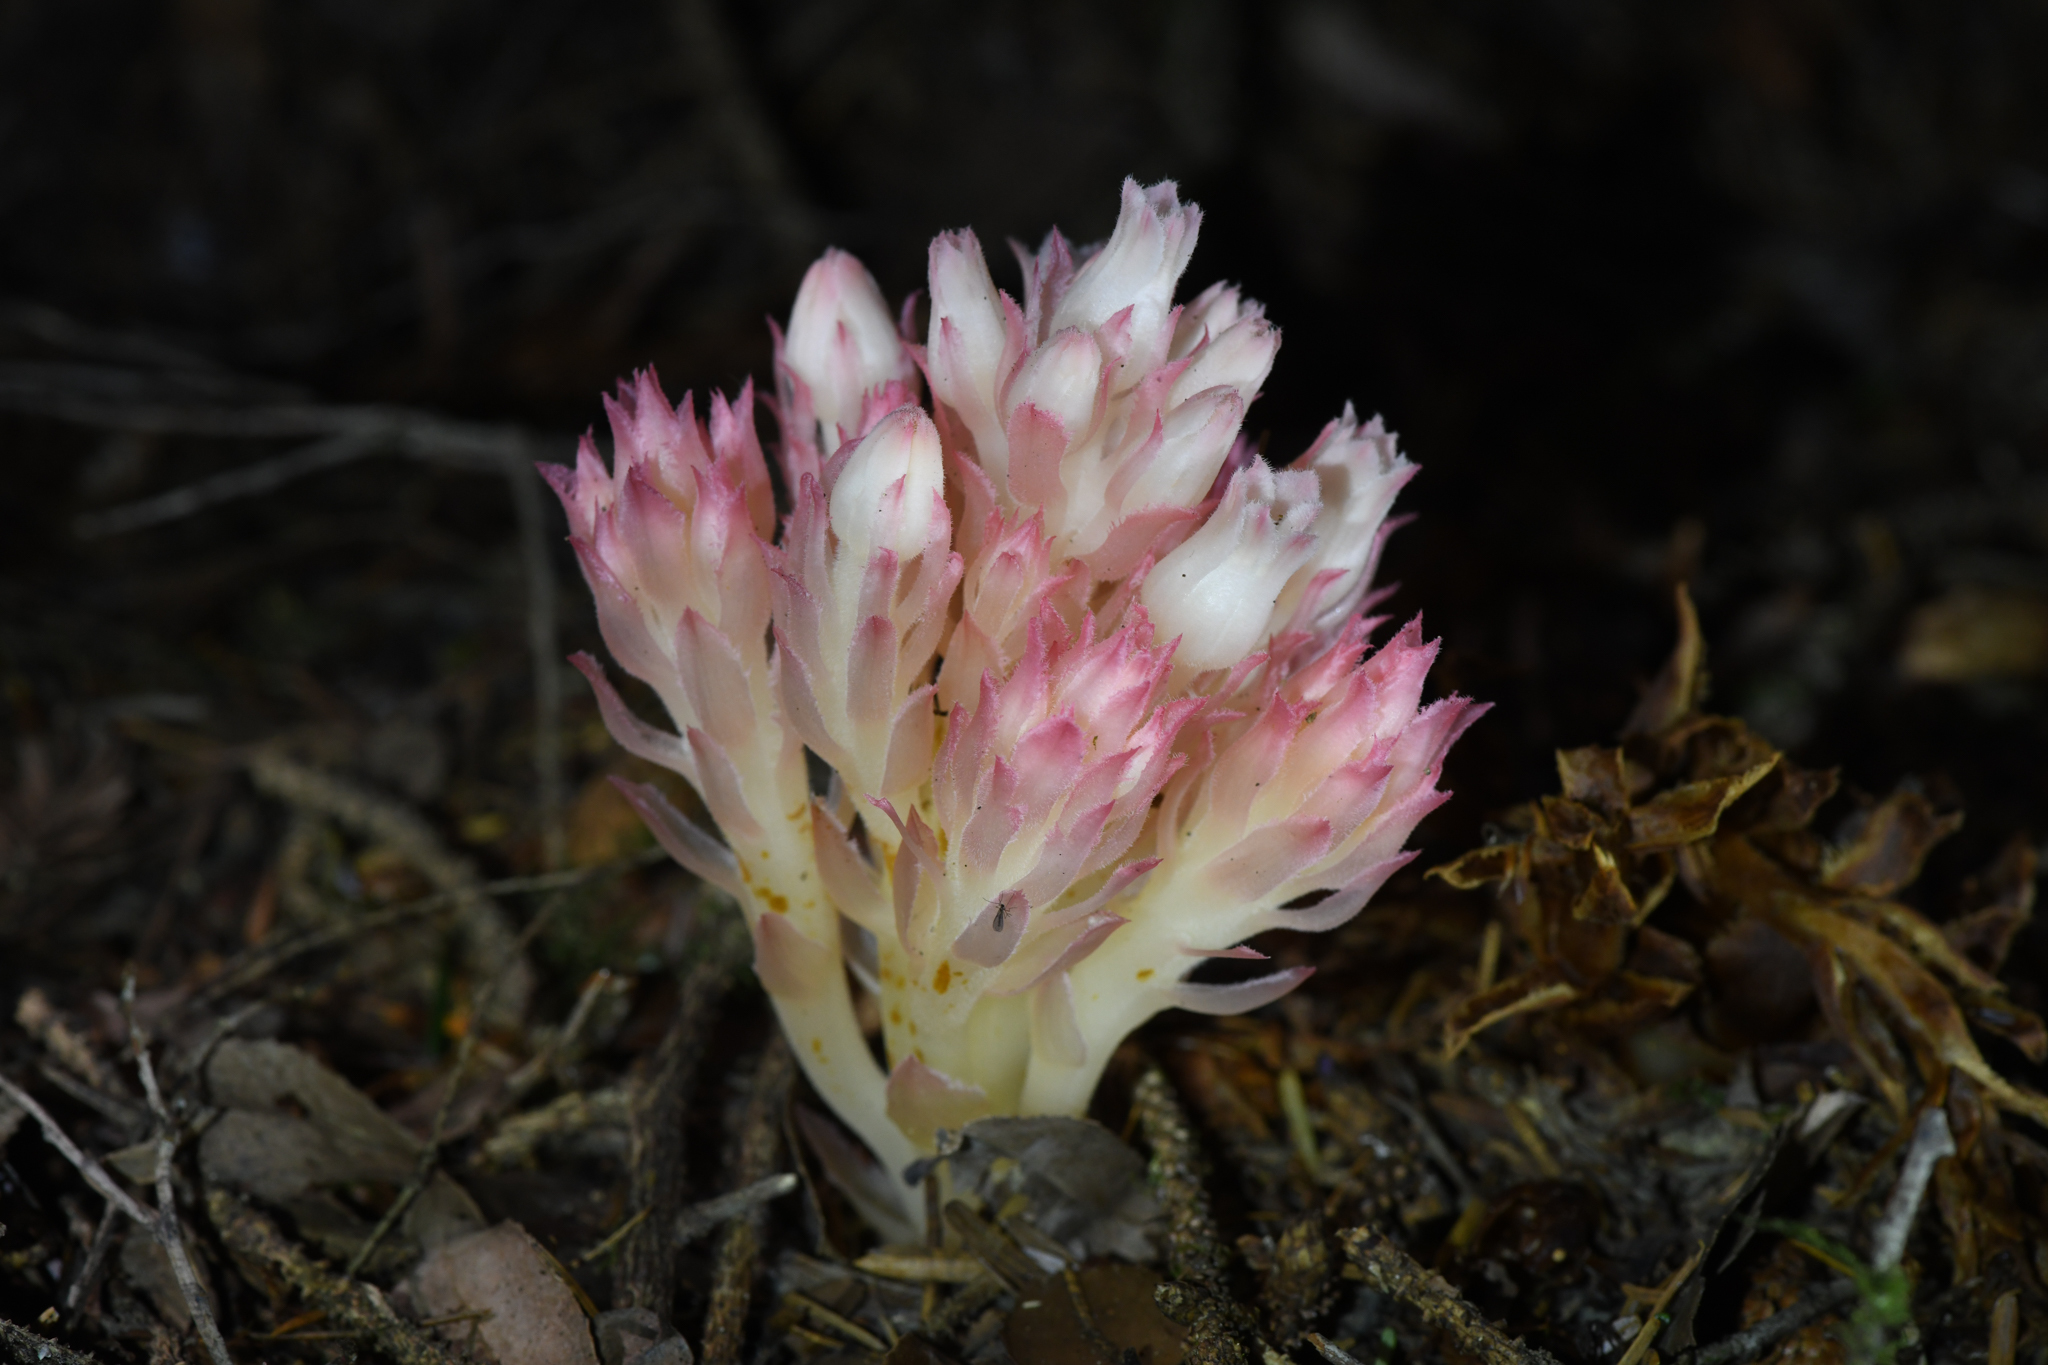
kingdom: Plantae
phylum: Tracheophyta
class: Magnoliopsida
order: Ericales
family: Ericaceae
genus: Hemitomes
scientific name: Hemitomes congestum
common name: Cone plant
